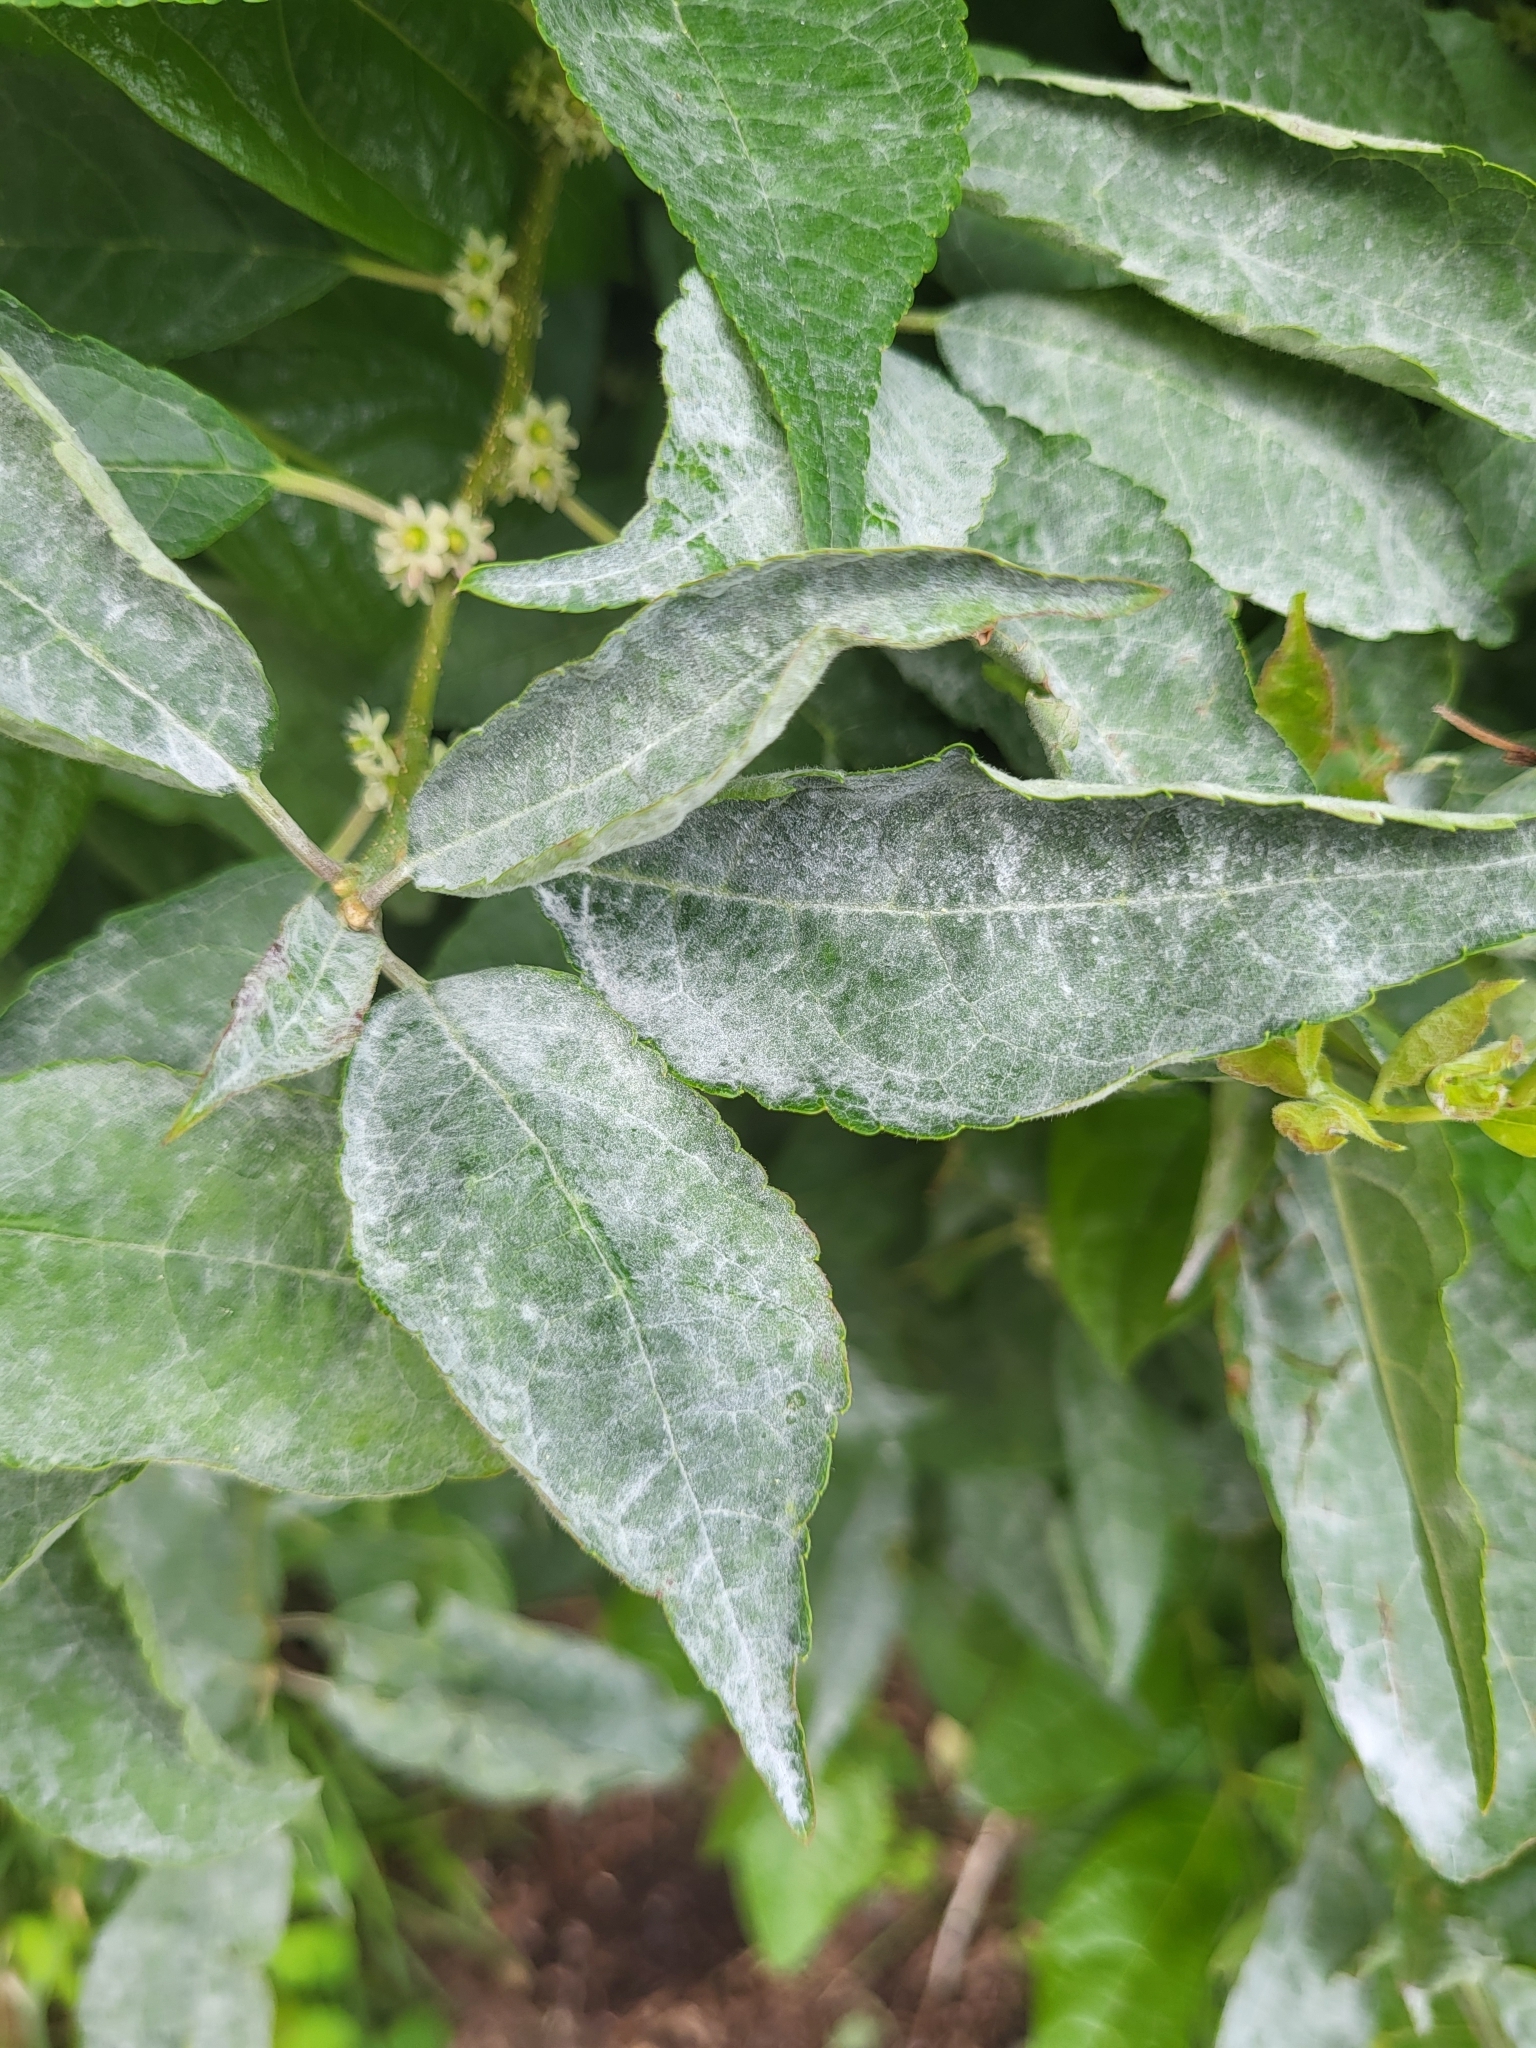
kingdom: Fungi
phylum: Ascomycota
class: Leotiomycetes
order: Helotiales
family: Erysiphaceae
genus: Erysiphe
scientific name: Erysiphe nemopanthi
